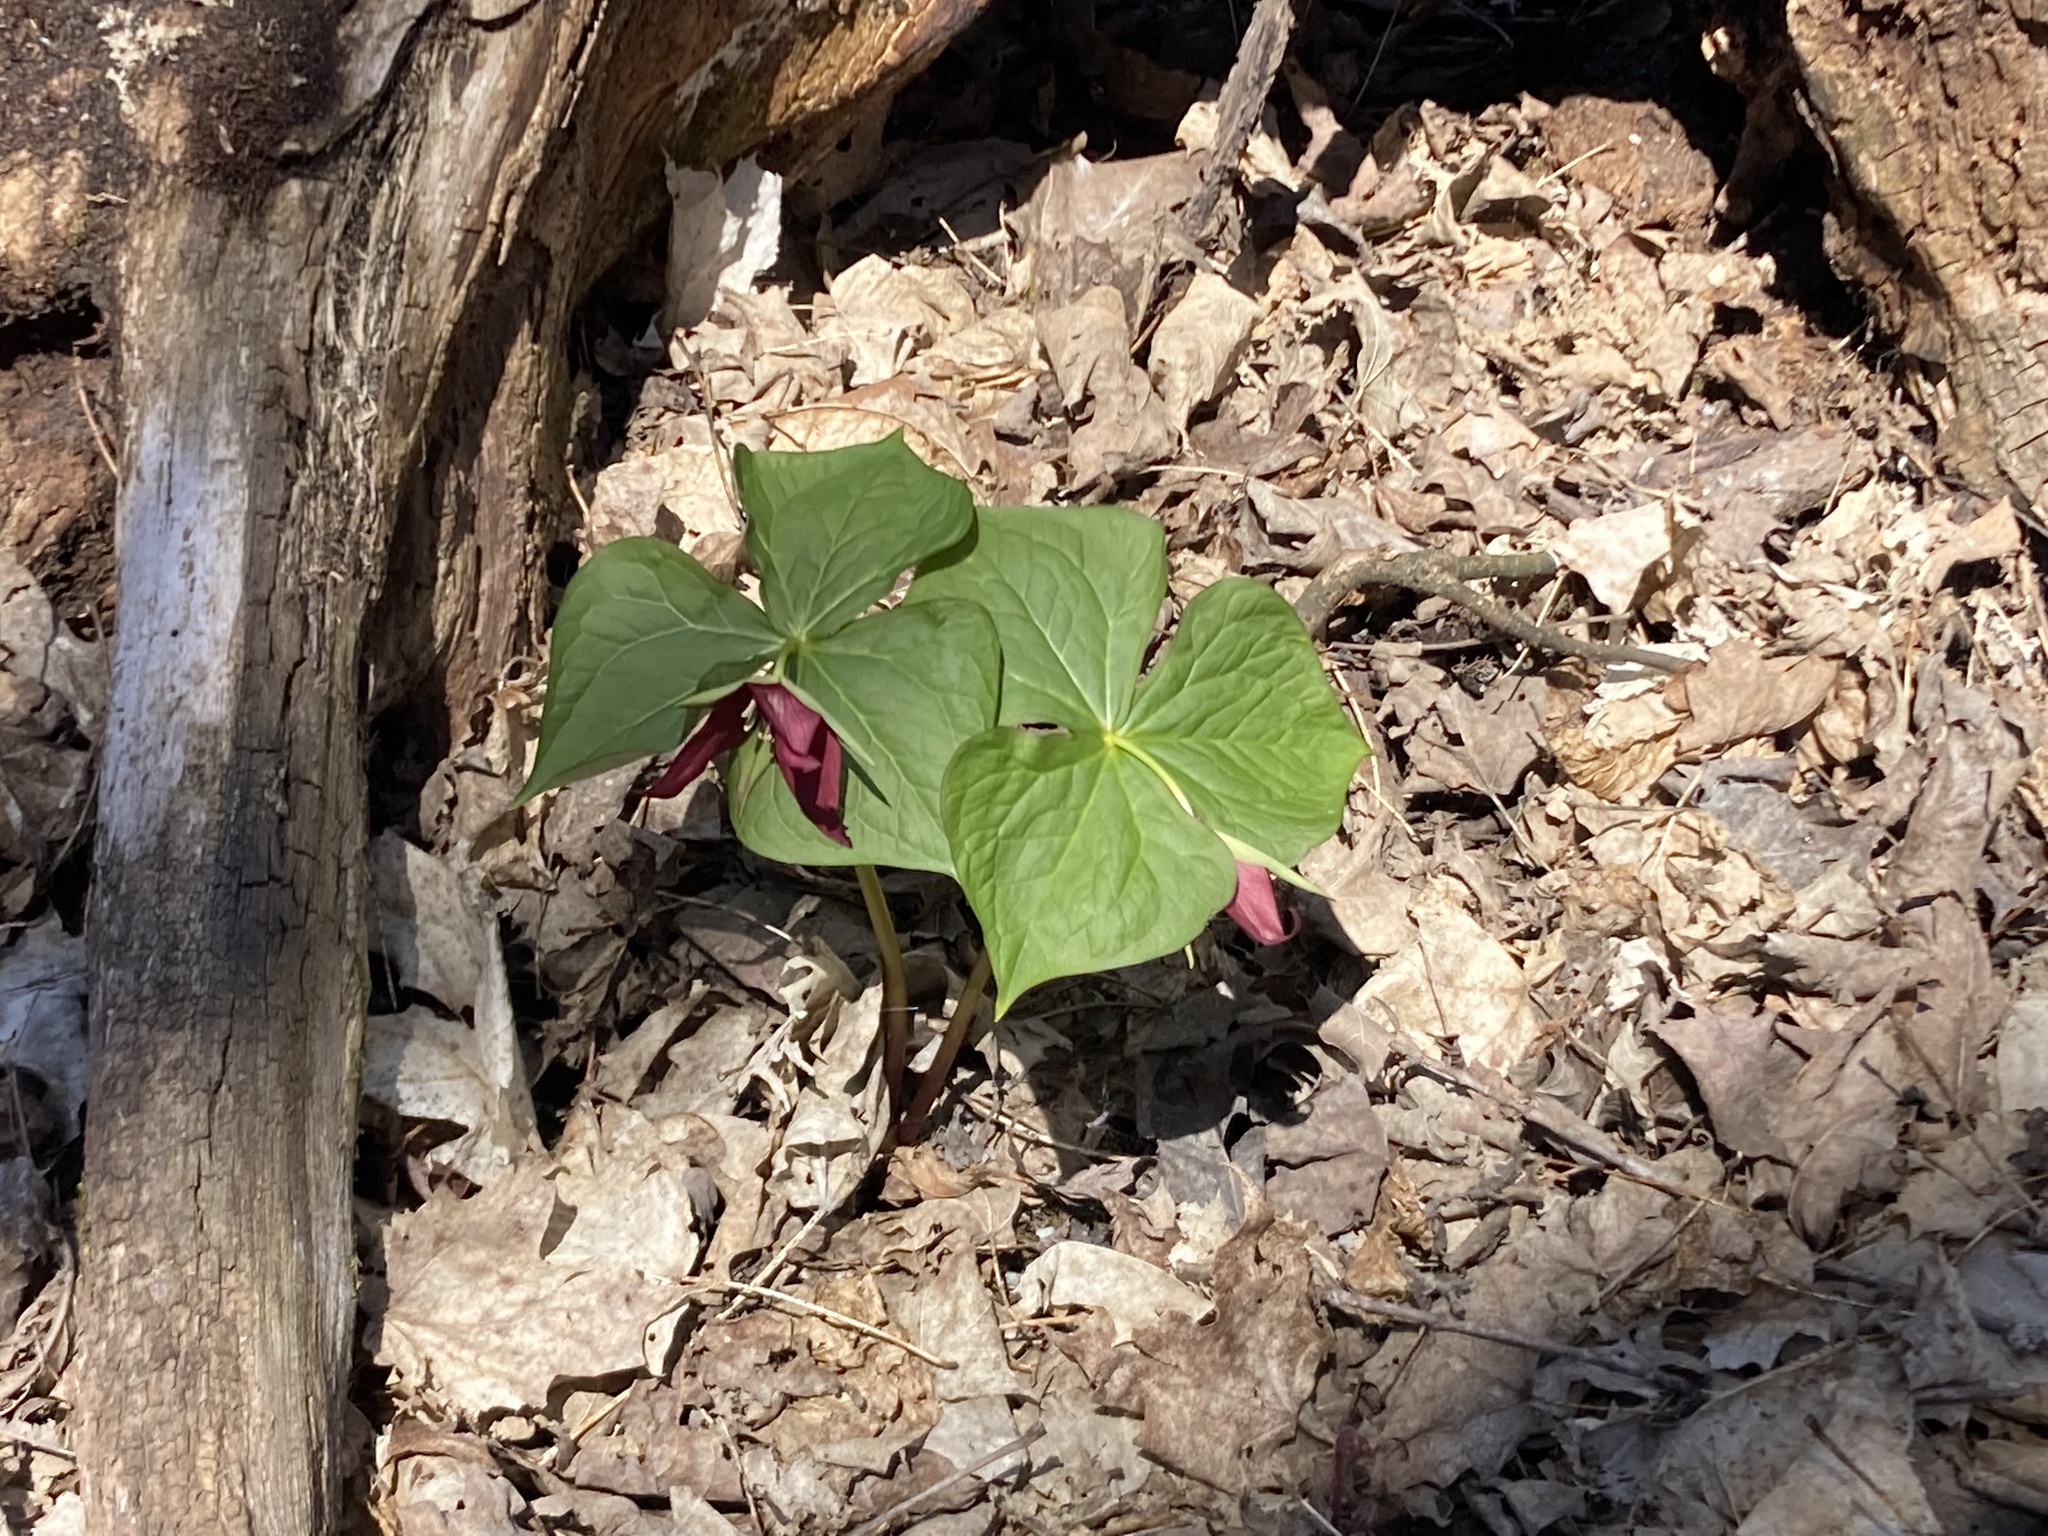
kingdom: Plantae
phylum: Tracheophyta
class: Liliopsida
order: Liliales
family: Melanthiaceae
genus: Trillium
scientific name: Trillium erectum
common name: Purple trillium
